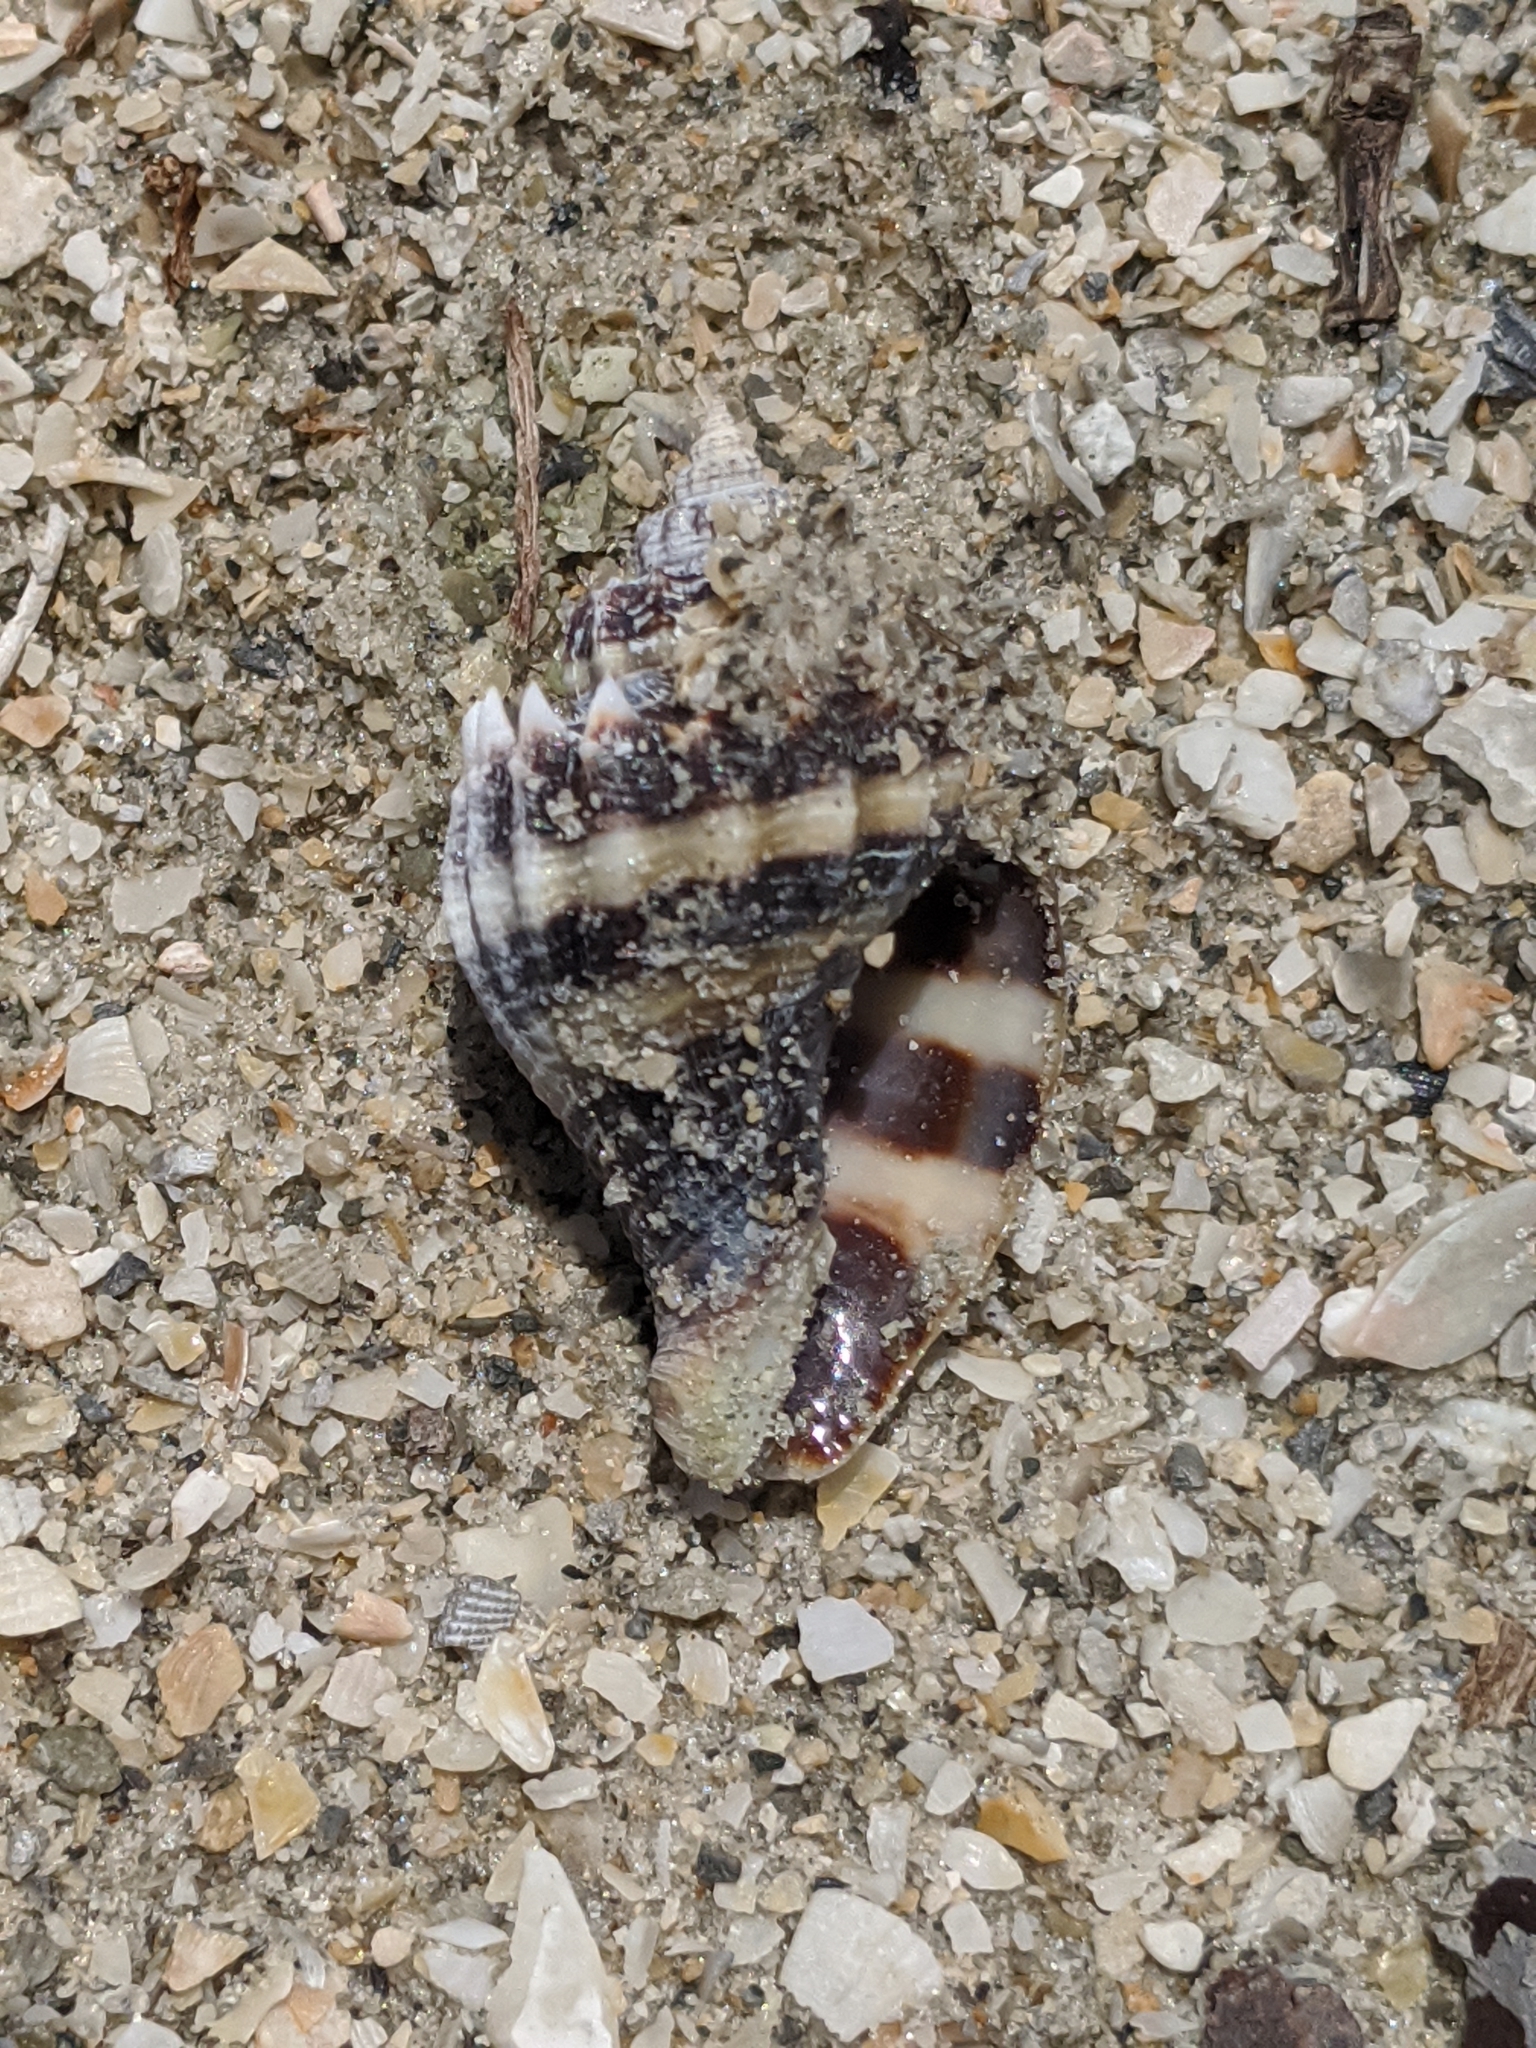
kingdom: Animalia
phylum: Mollusca
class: Gastropoda
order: Neogastropoda
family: Melongenidae
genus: Melongena
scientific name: Melongena corona
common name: American crown conch
